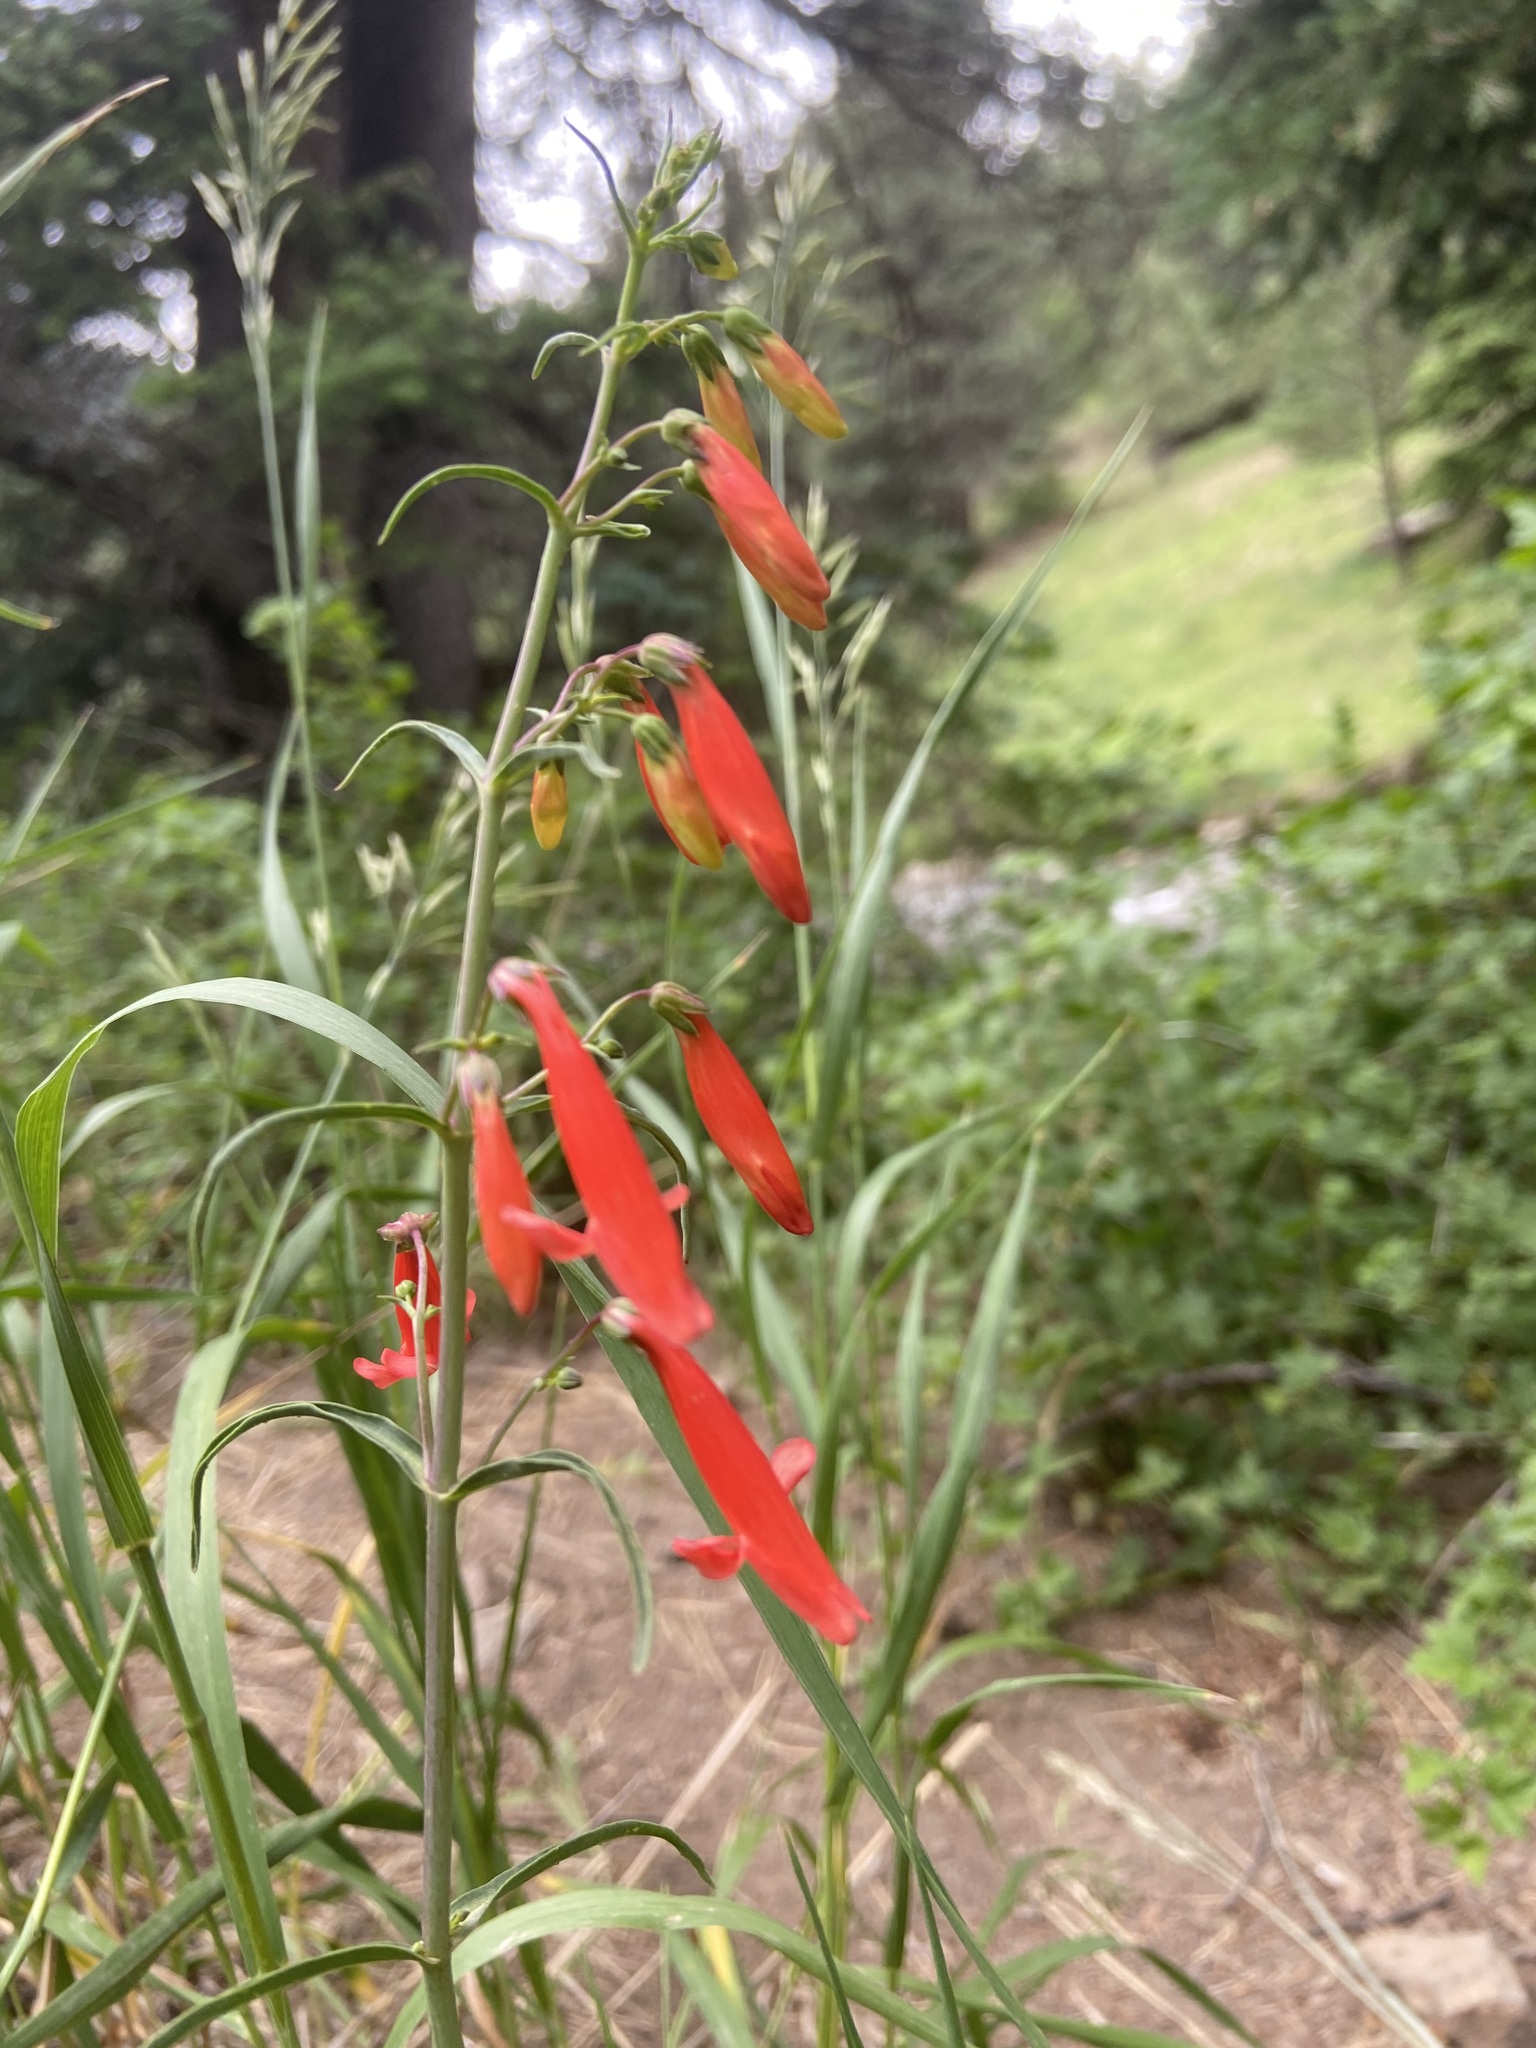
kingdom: Plantae
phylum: Tracheophyta
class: Magnoliopsida
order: Lamiales
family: Plantaginaceae
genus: Penstemon
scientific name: Penstemon barbatus
